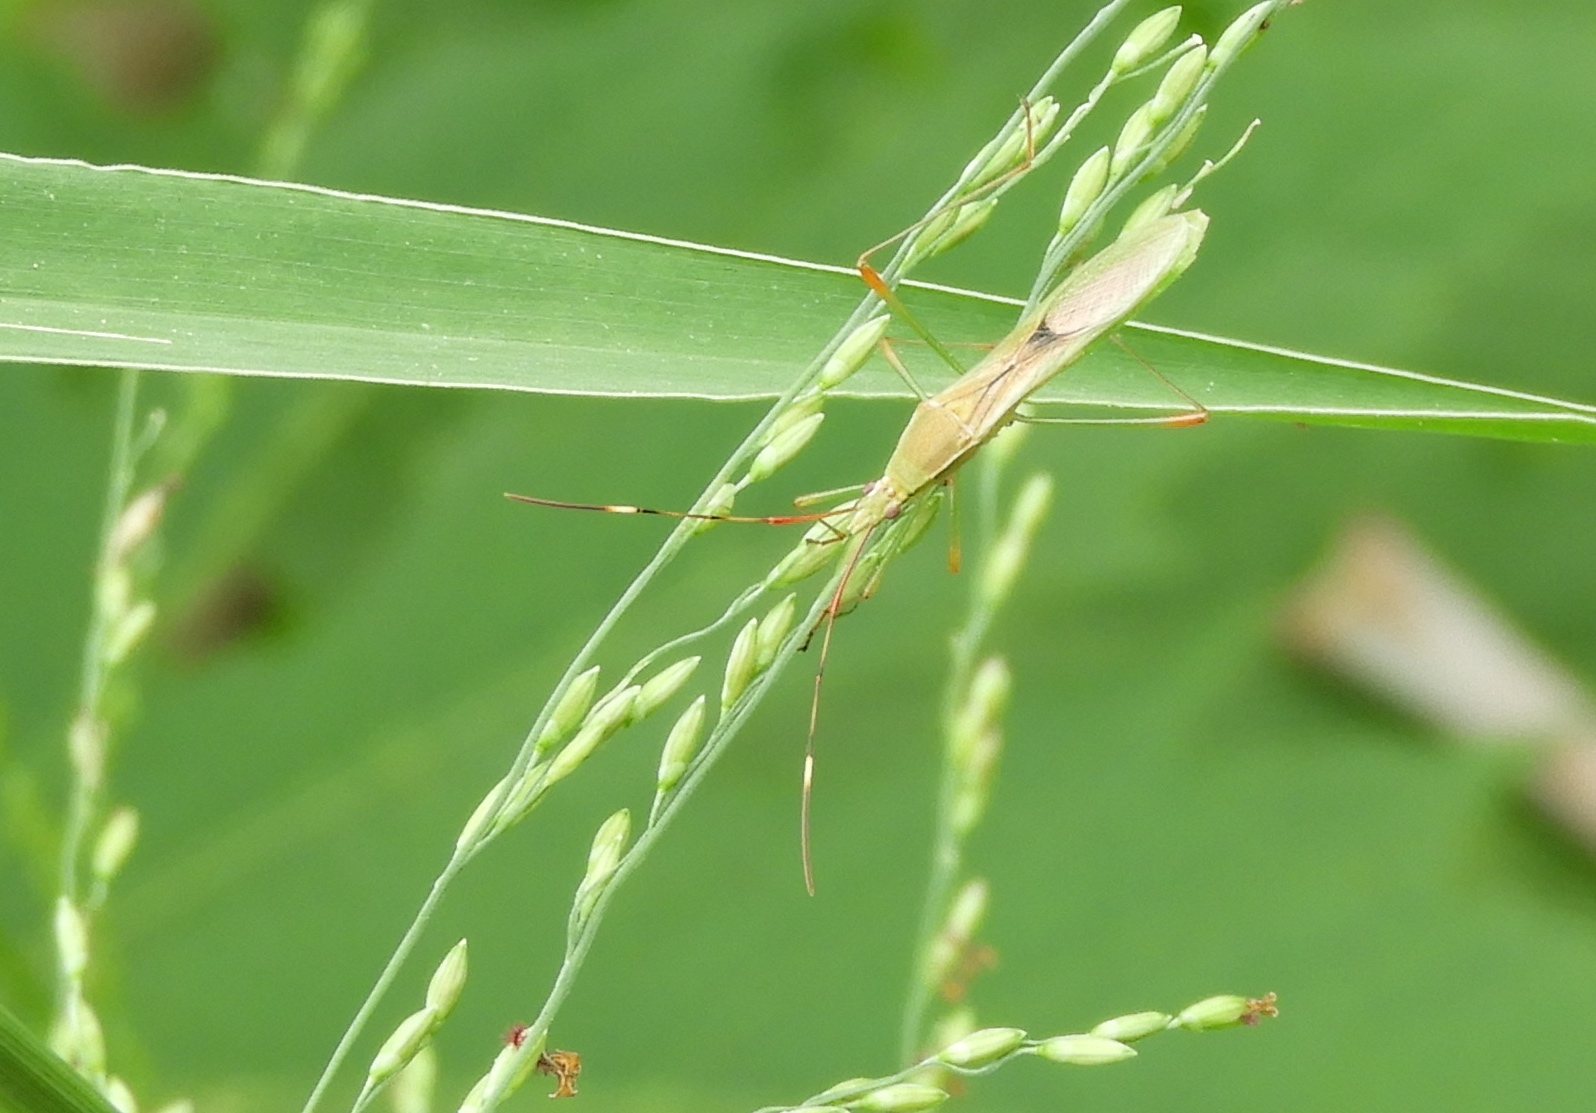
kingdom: Animalia
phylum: Arthropoda
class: Insecta
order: Hemiptera
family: Alydidae
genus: Stenocoris
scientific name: Stenocoris
